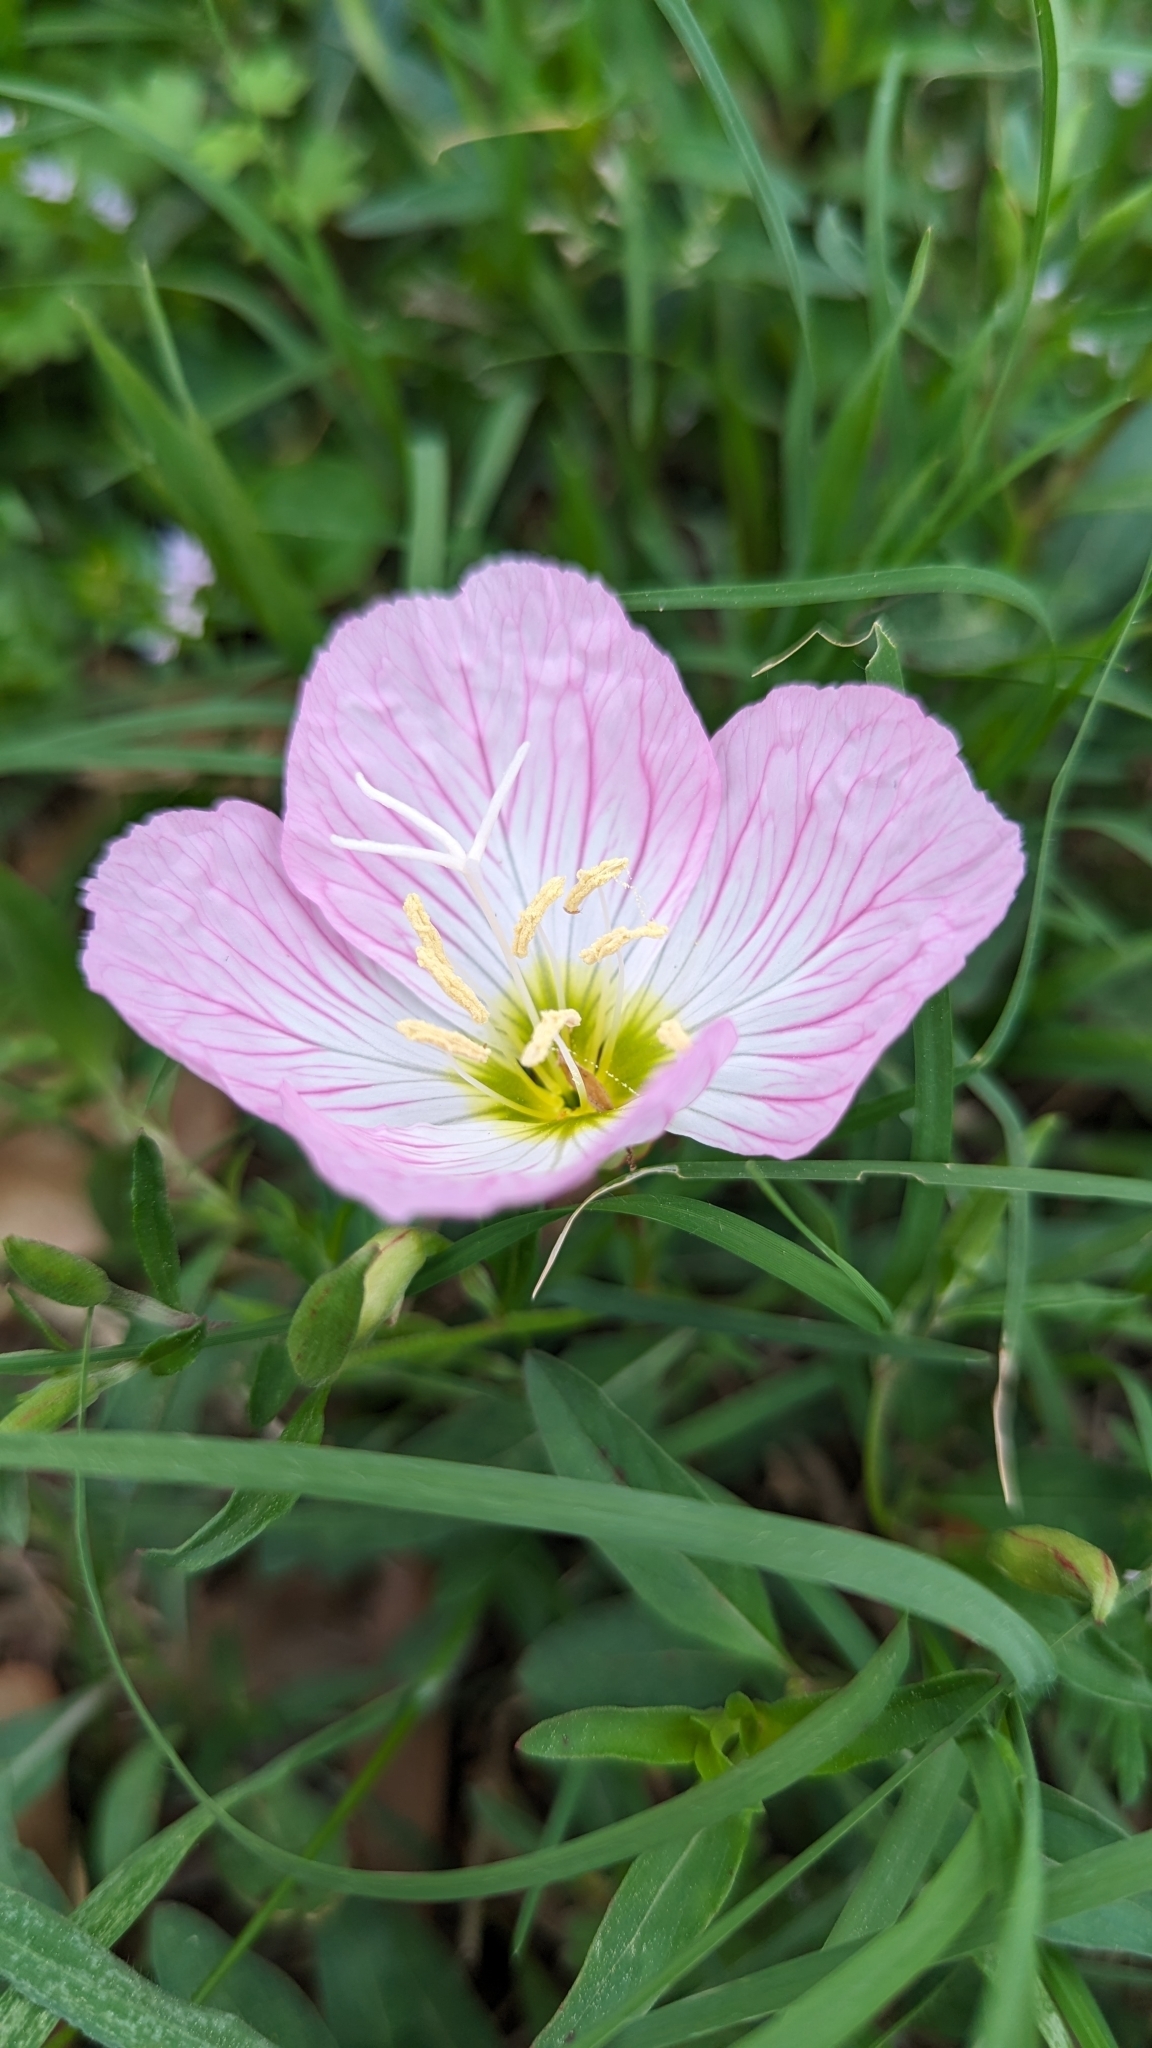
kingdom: Plantae
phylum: Tracheophyta
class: Magnoliopsida
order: Myrtales
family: Onagraceae
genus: Oenothera
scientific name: Oenothera speciosa
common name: White evening-primrose
